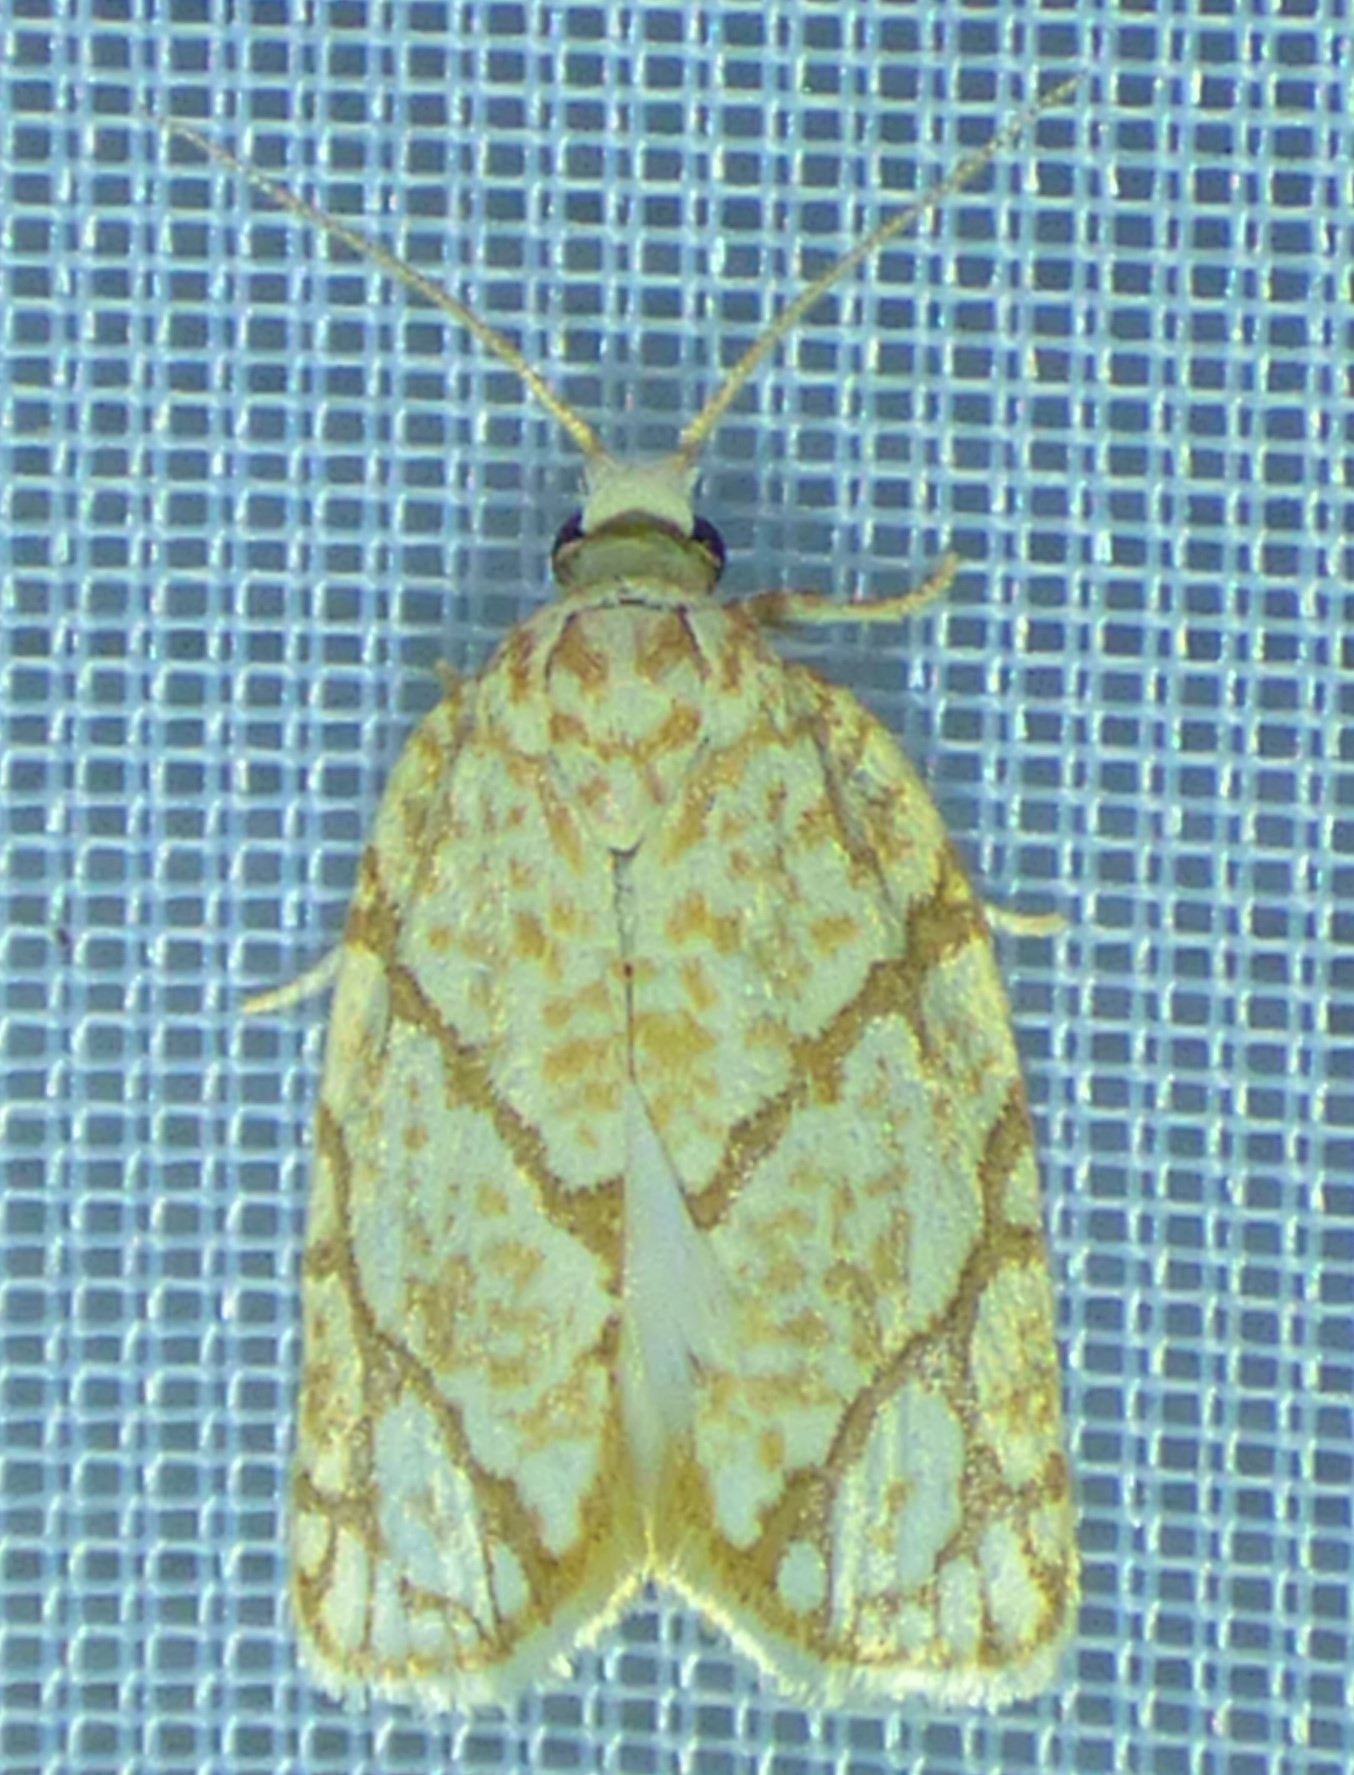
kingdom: Animalia
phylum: Arthropoda
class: Insecta
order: Lepidoptera
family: Tortricidae
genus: Argyrotaenia
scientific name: Argyrotaenia quercifoliana
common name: Yellow-winged oak leafroller moth
